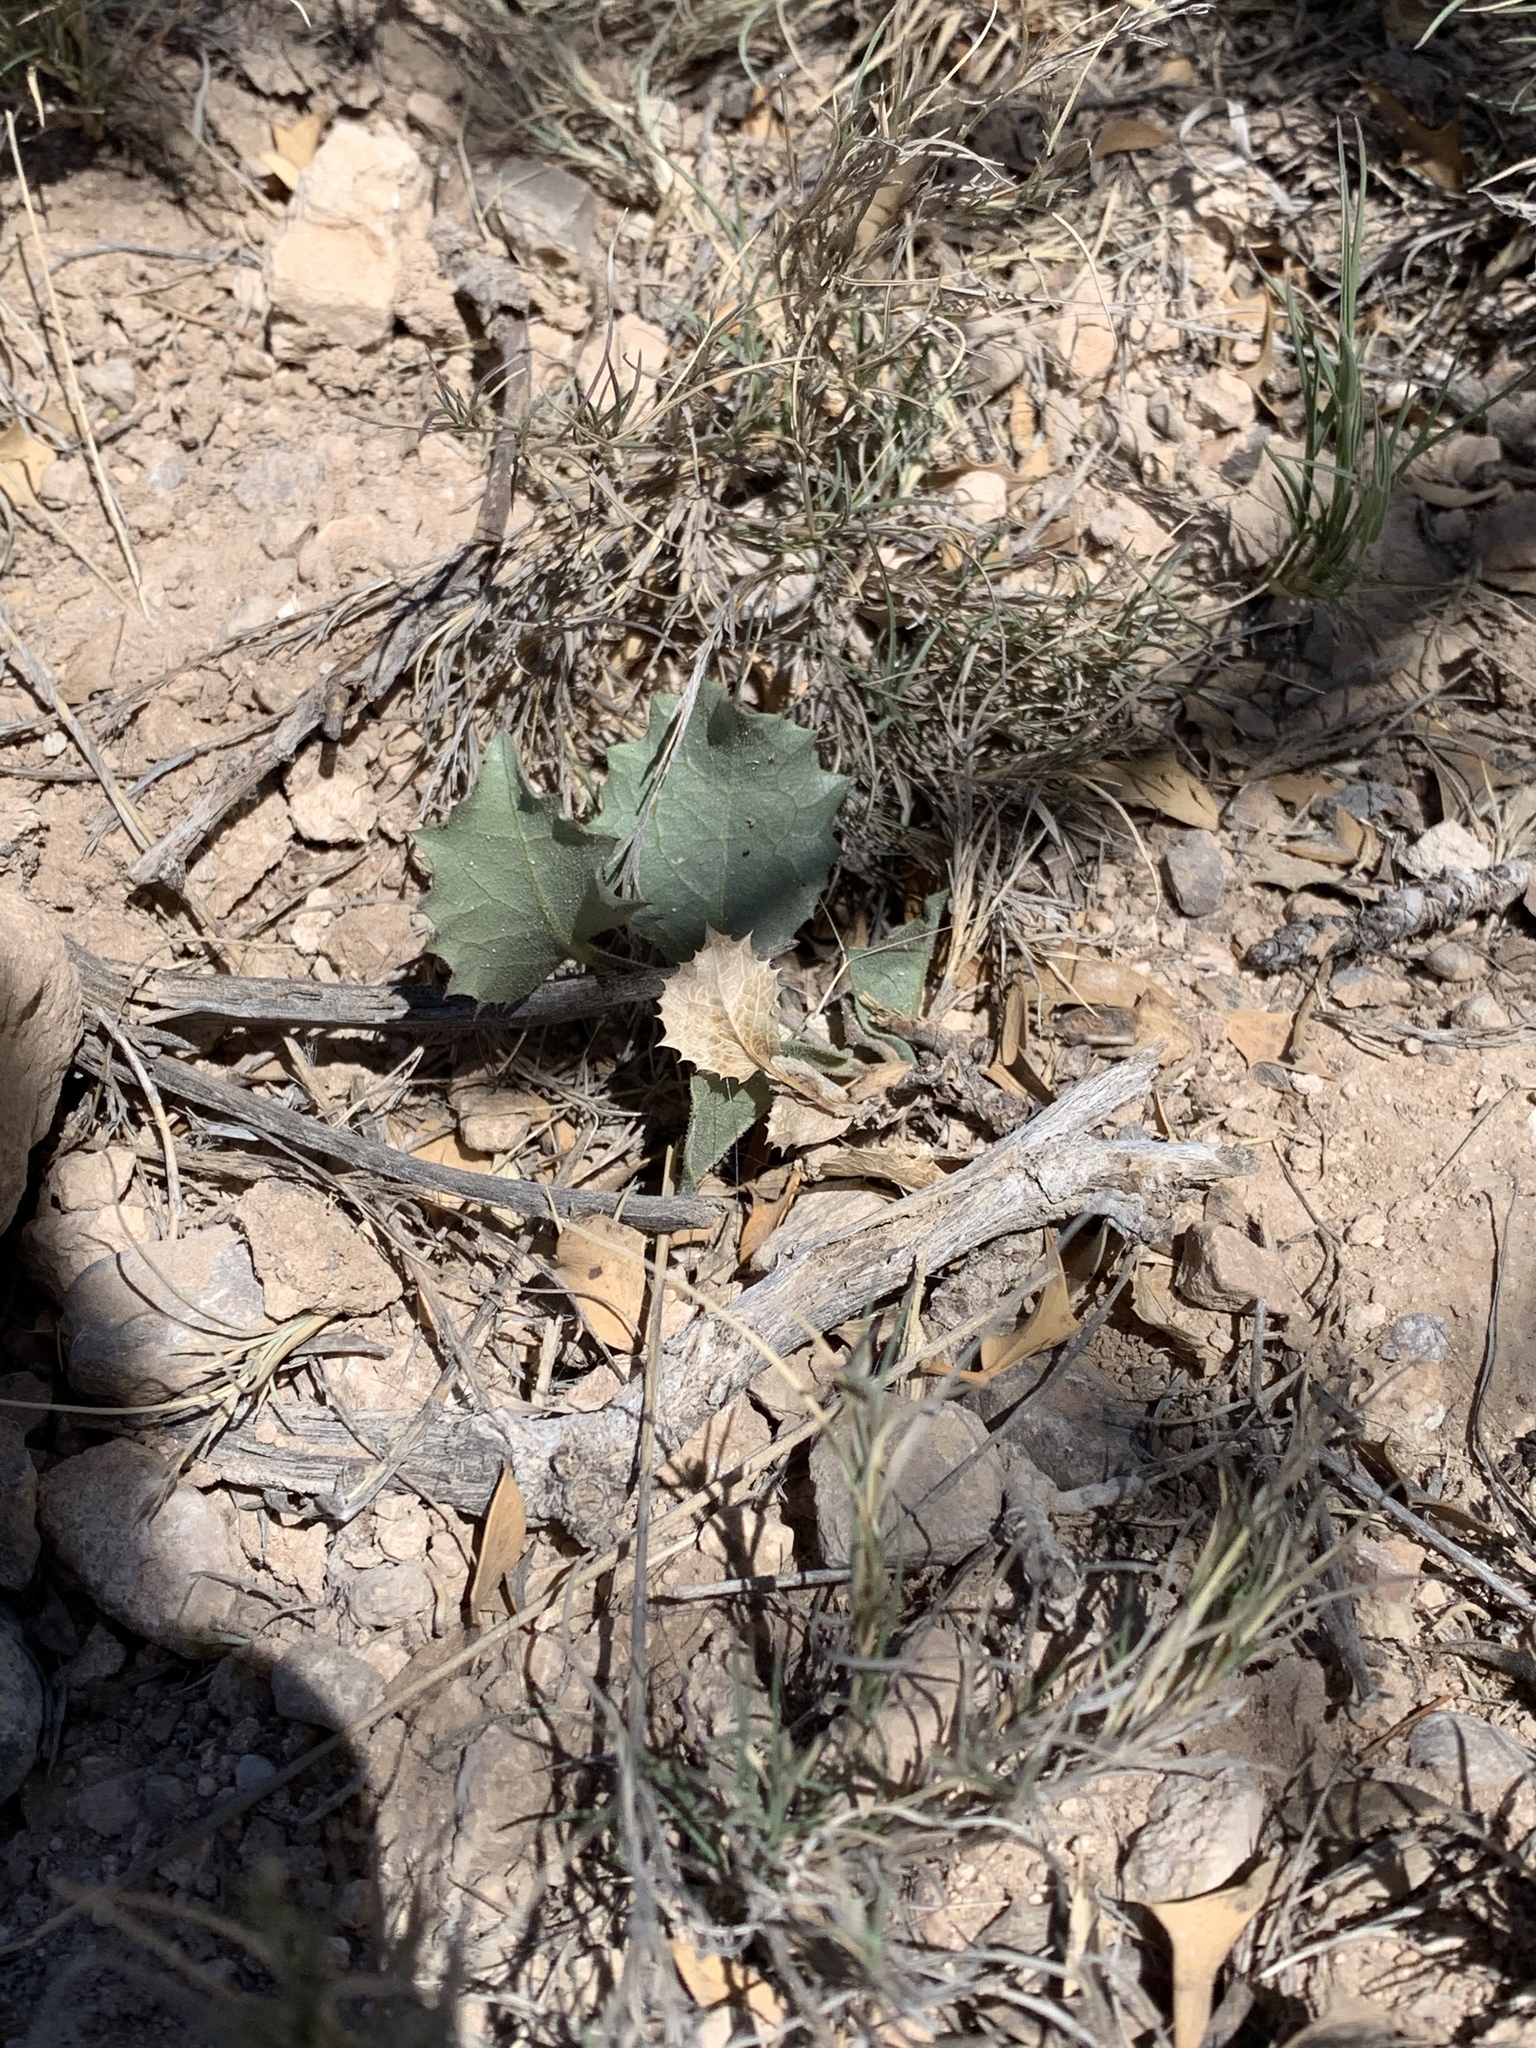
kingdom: Plantae
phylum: Tracheophyta
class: Magnoliopsida
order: Asterales
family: Asteraceae
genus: Acourtia
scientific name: Acourtia nana
